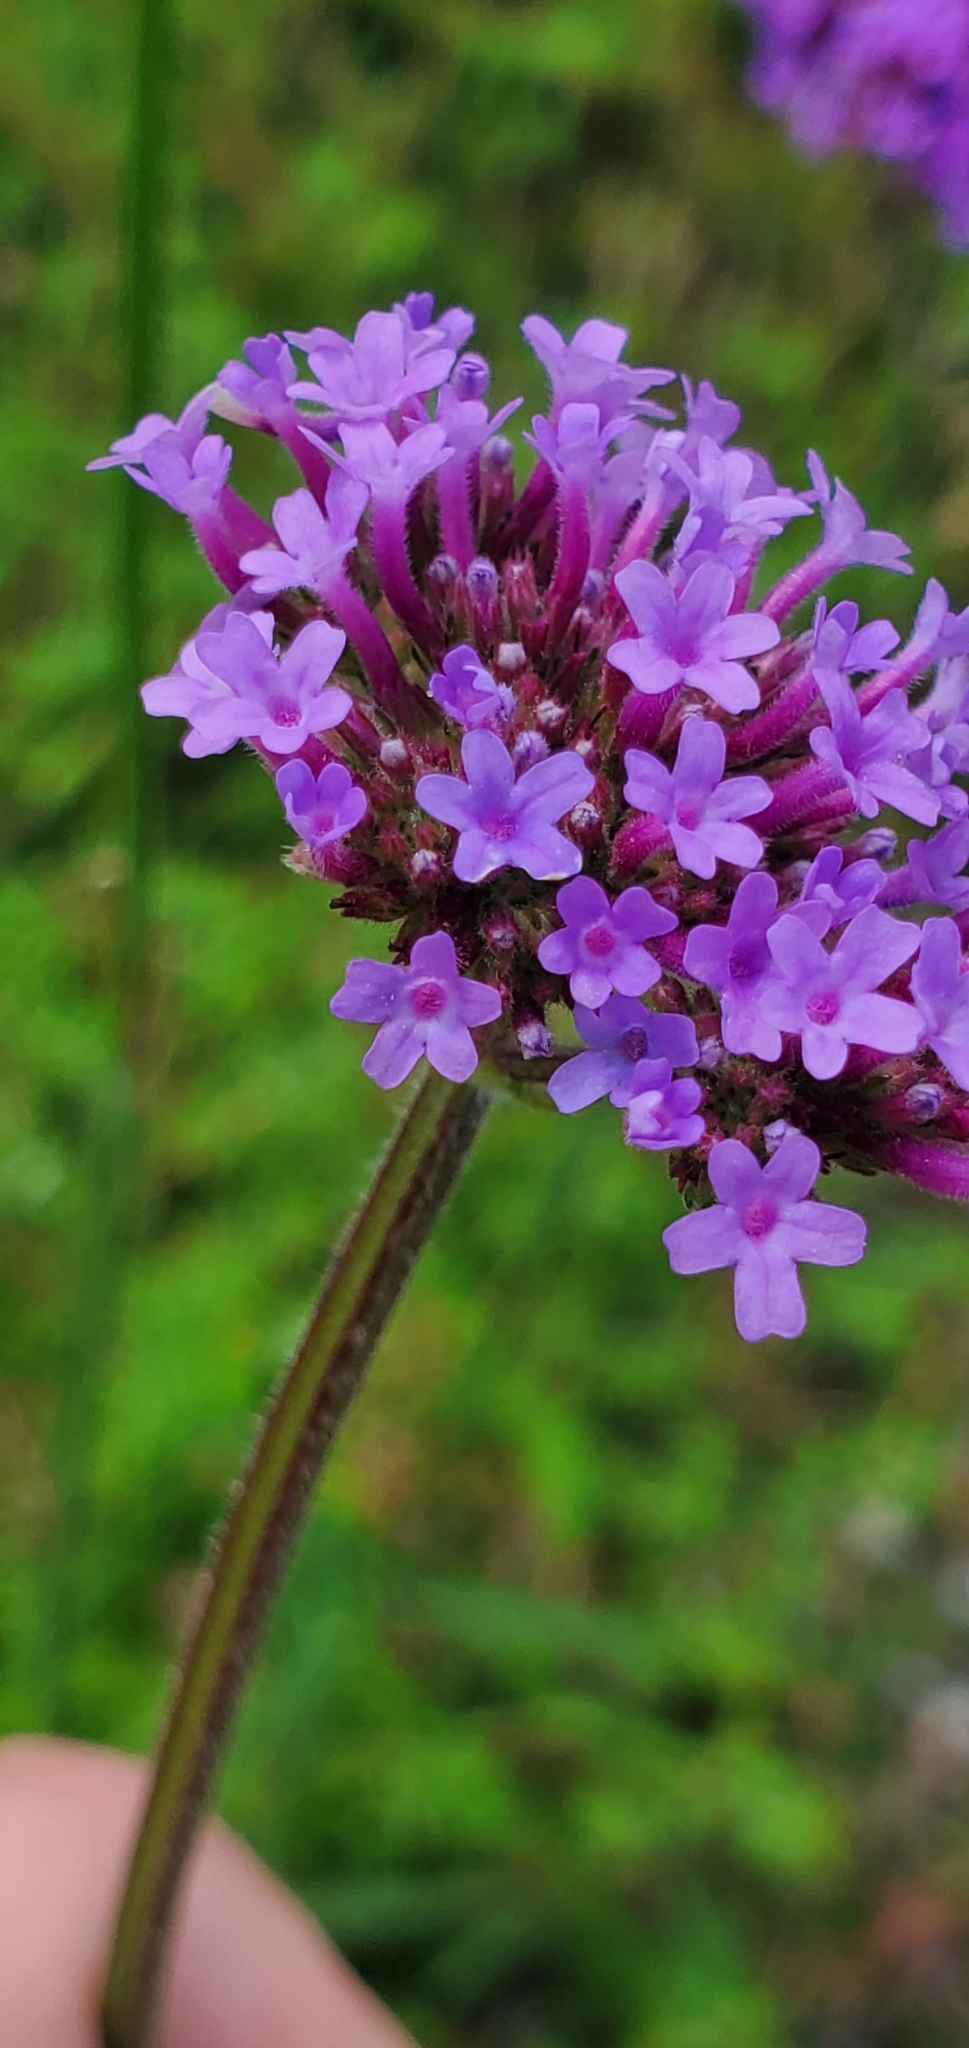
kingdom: Plantae
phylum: Tracheophyta
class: Magnoliopsida
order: Lamiales
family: Verbenaceae
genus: Verbena
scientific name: Verbena bonariensis
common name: Purpletop vervain
